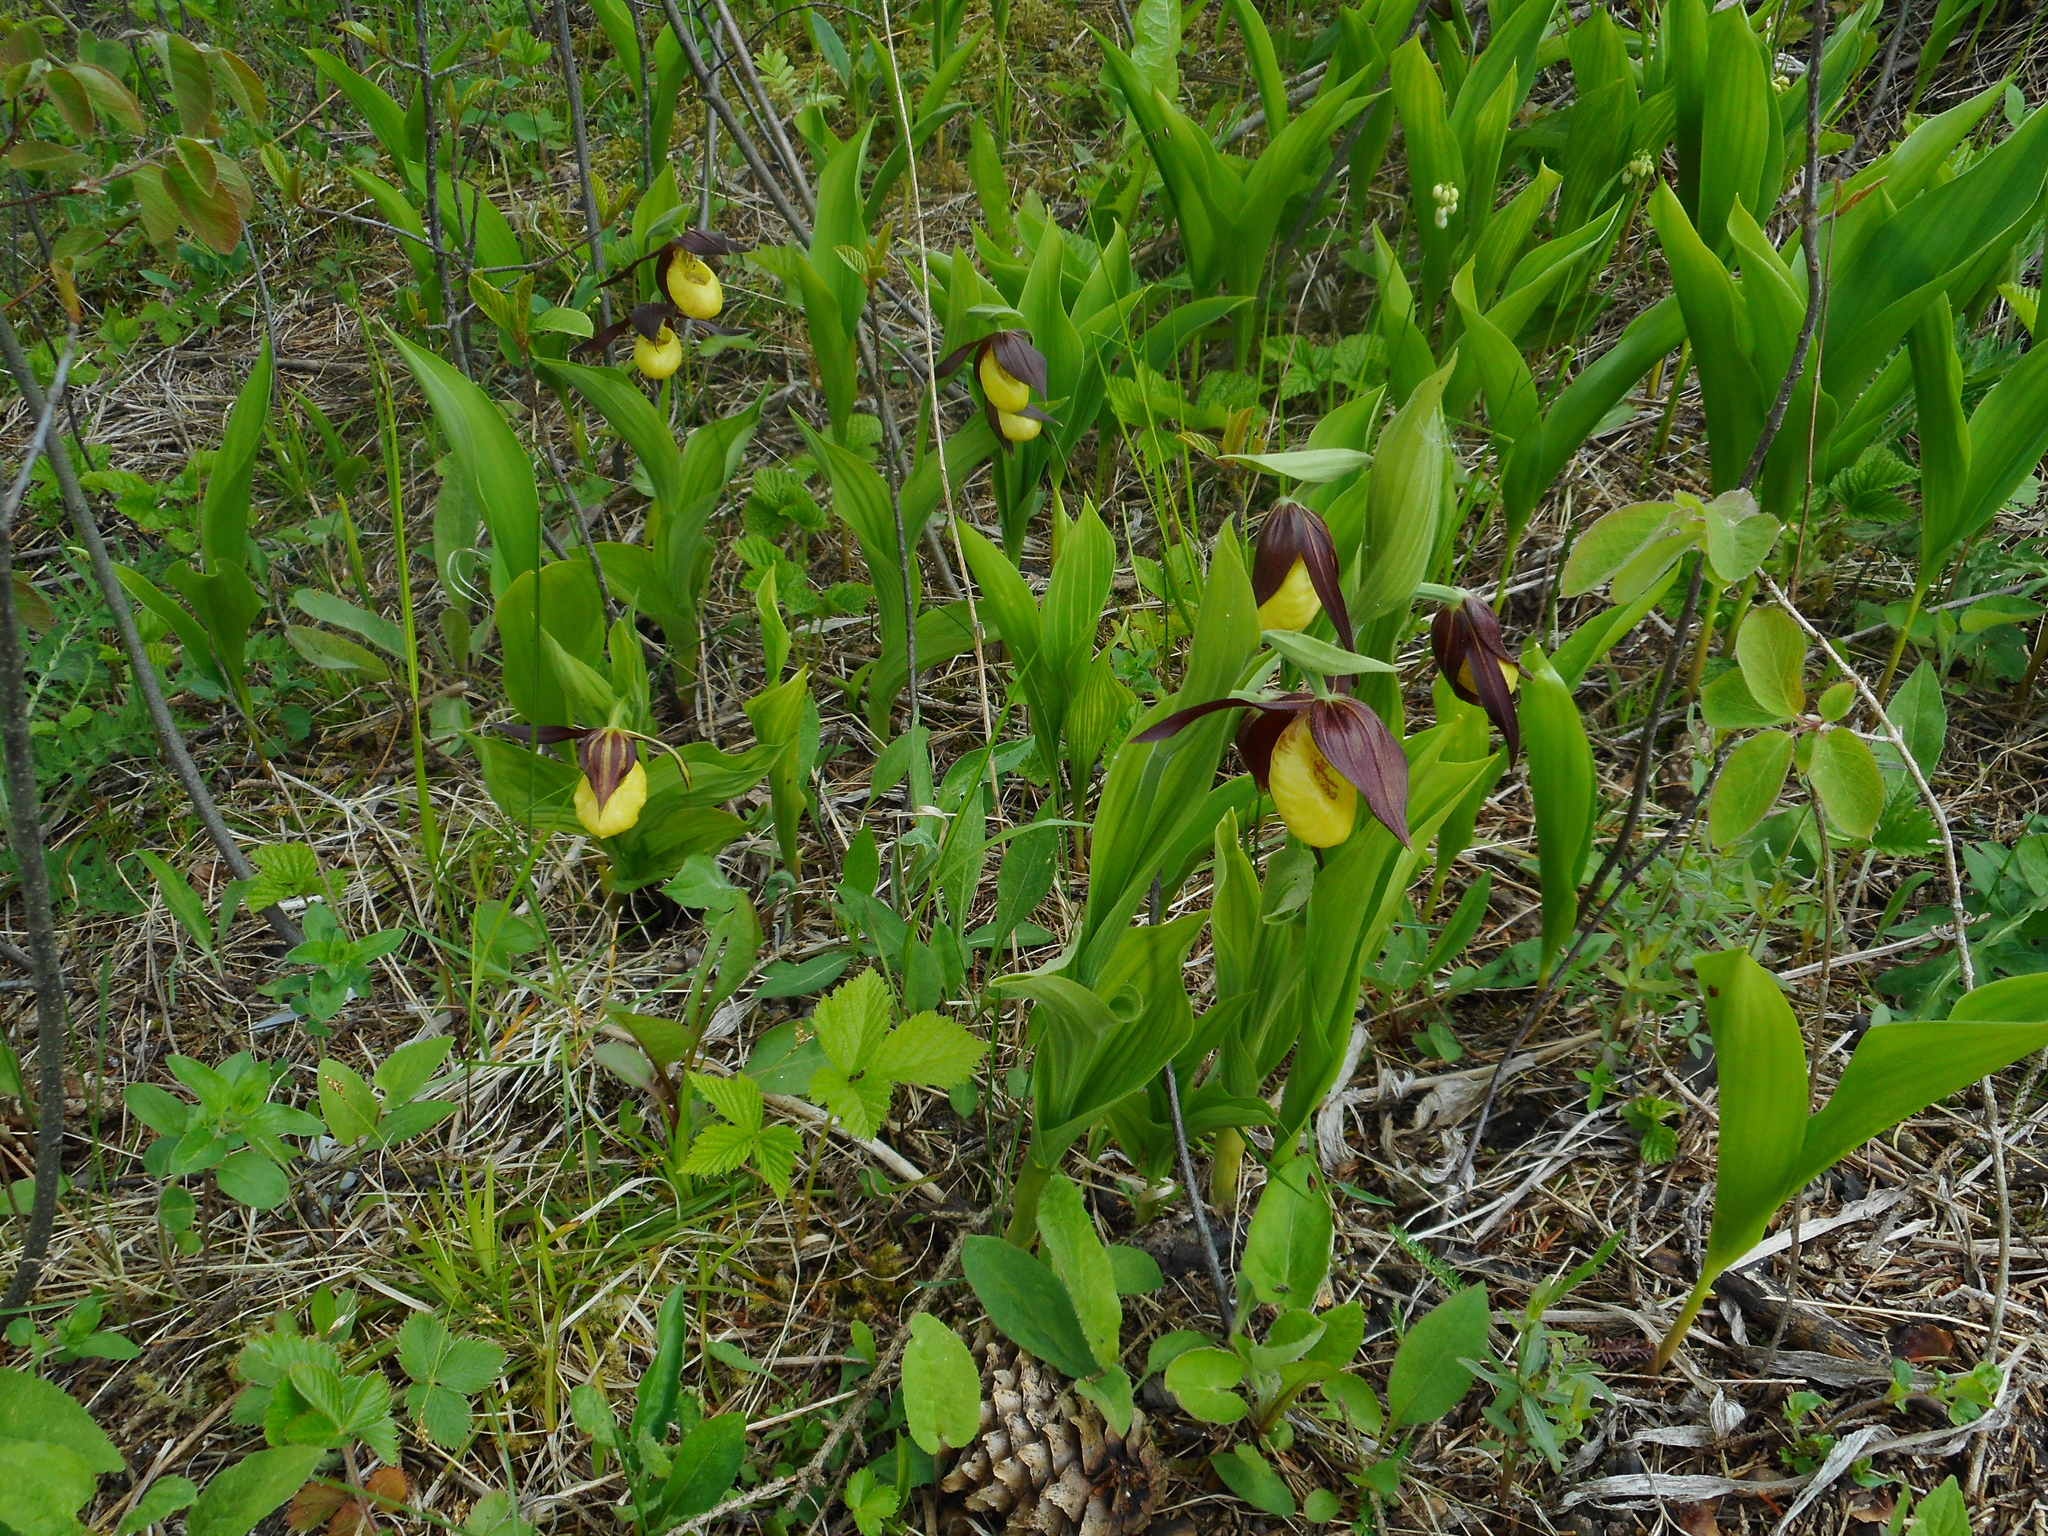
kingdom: Plantae
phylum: Tracheophyta
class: Liliopsida
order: Asparagales
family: Orchidaceae
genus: Cypripedium
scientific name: Cypripedium calceolus
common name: Lady's-slipper
